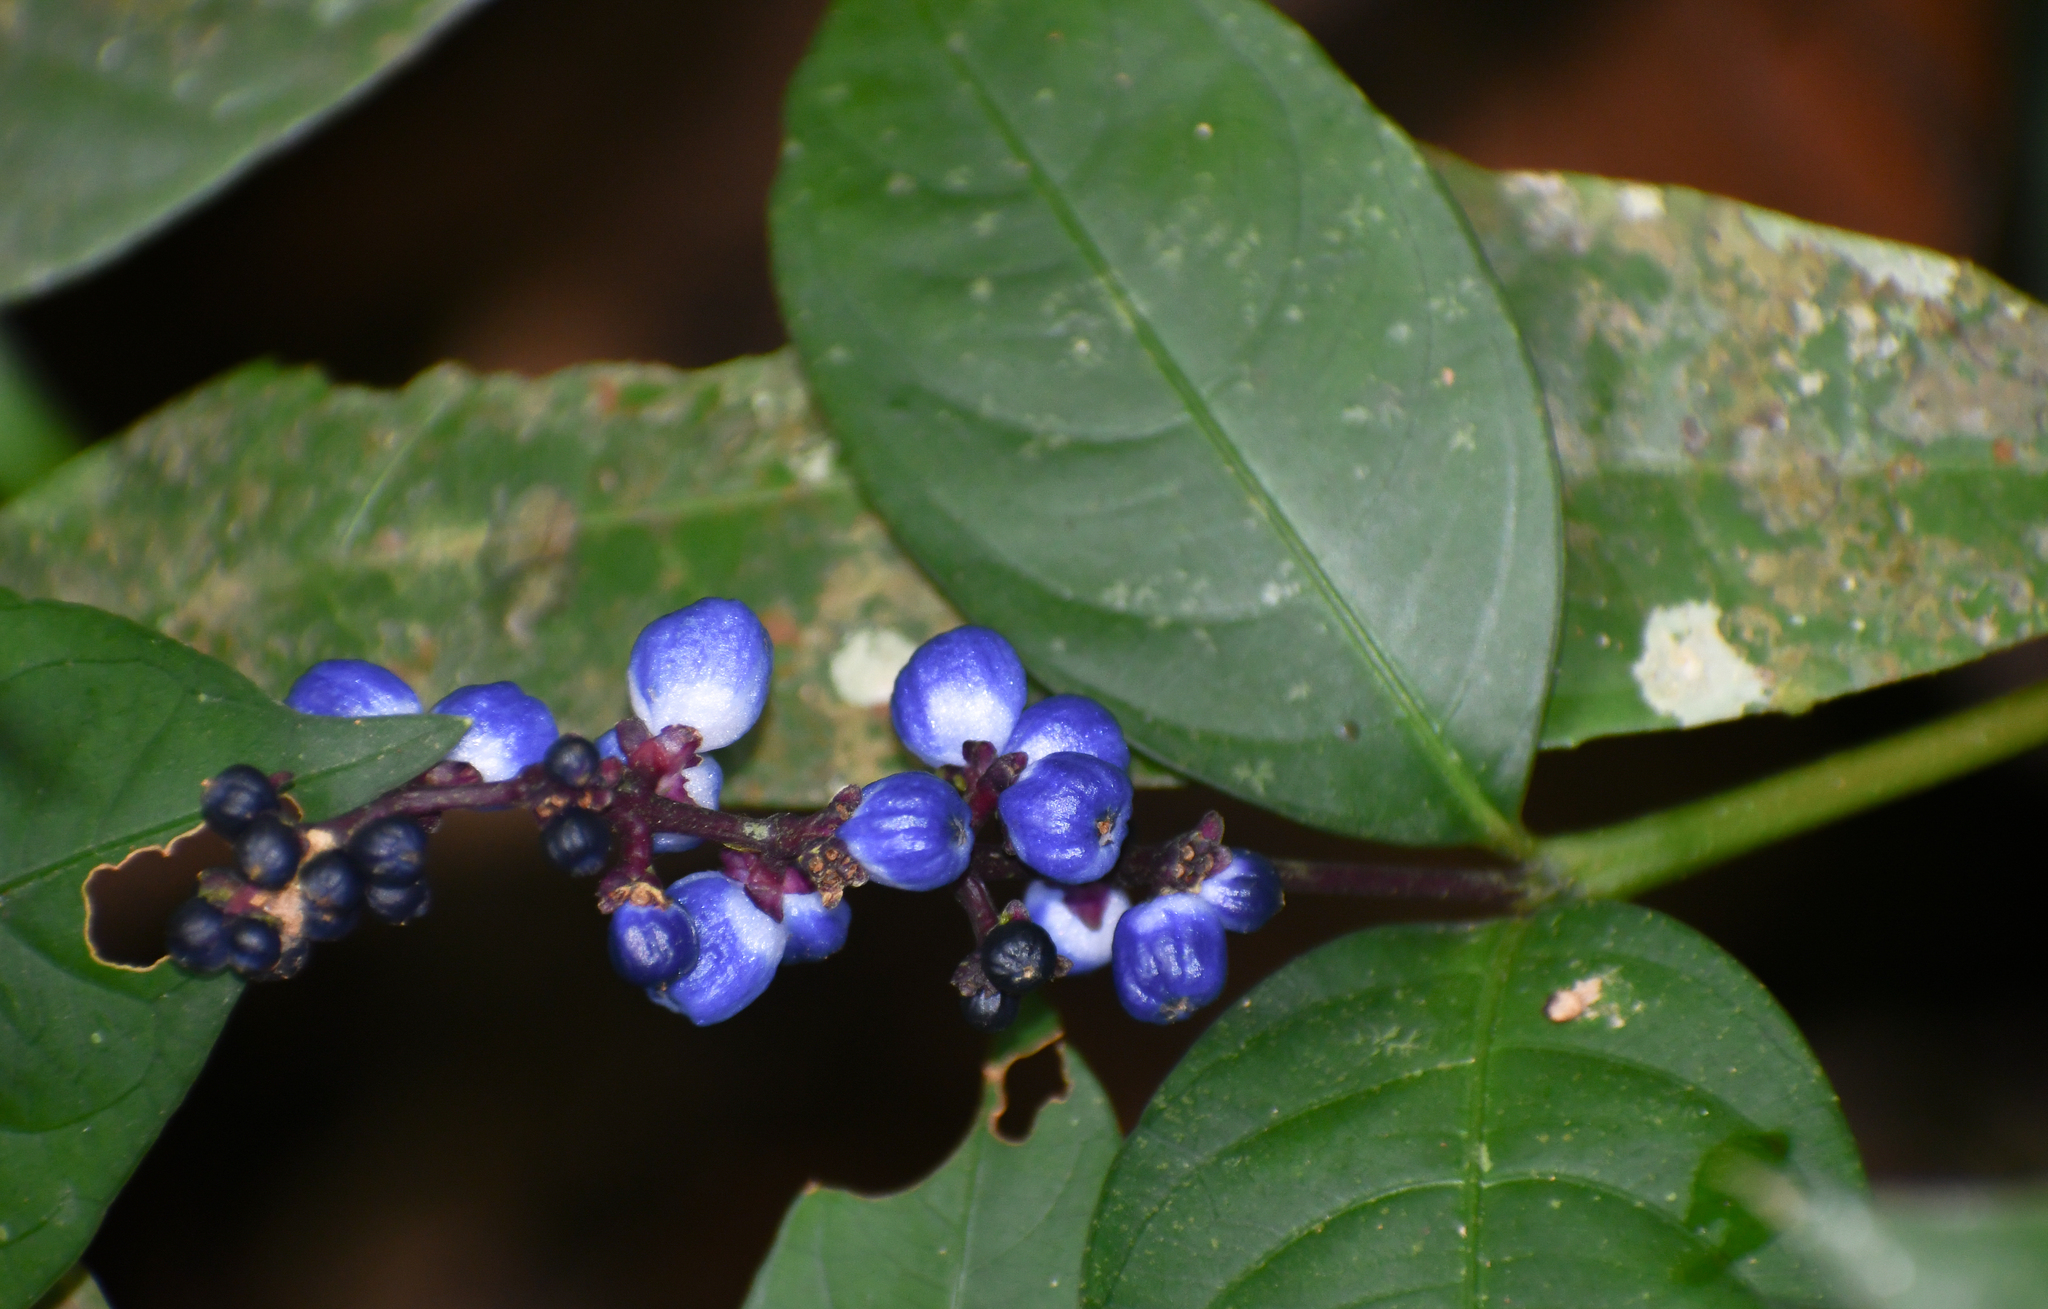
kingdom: Plantae
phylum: Tracheophyta
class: Magnoliopsida
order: Gentianales
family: Rubiaceae
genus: Palicourea
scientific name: Palicourea polycephala
